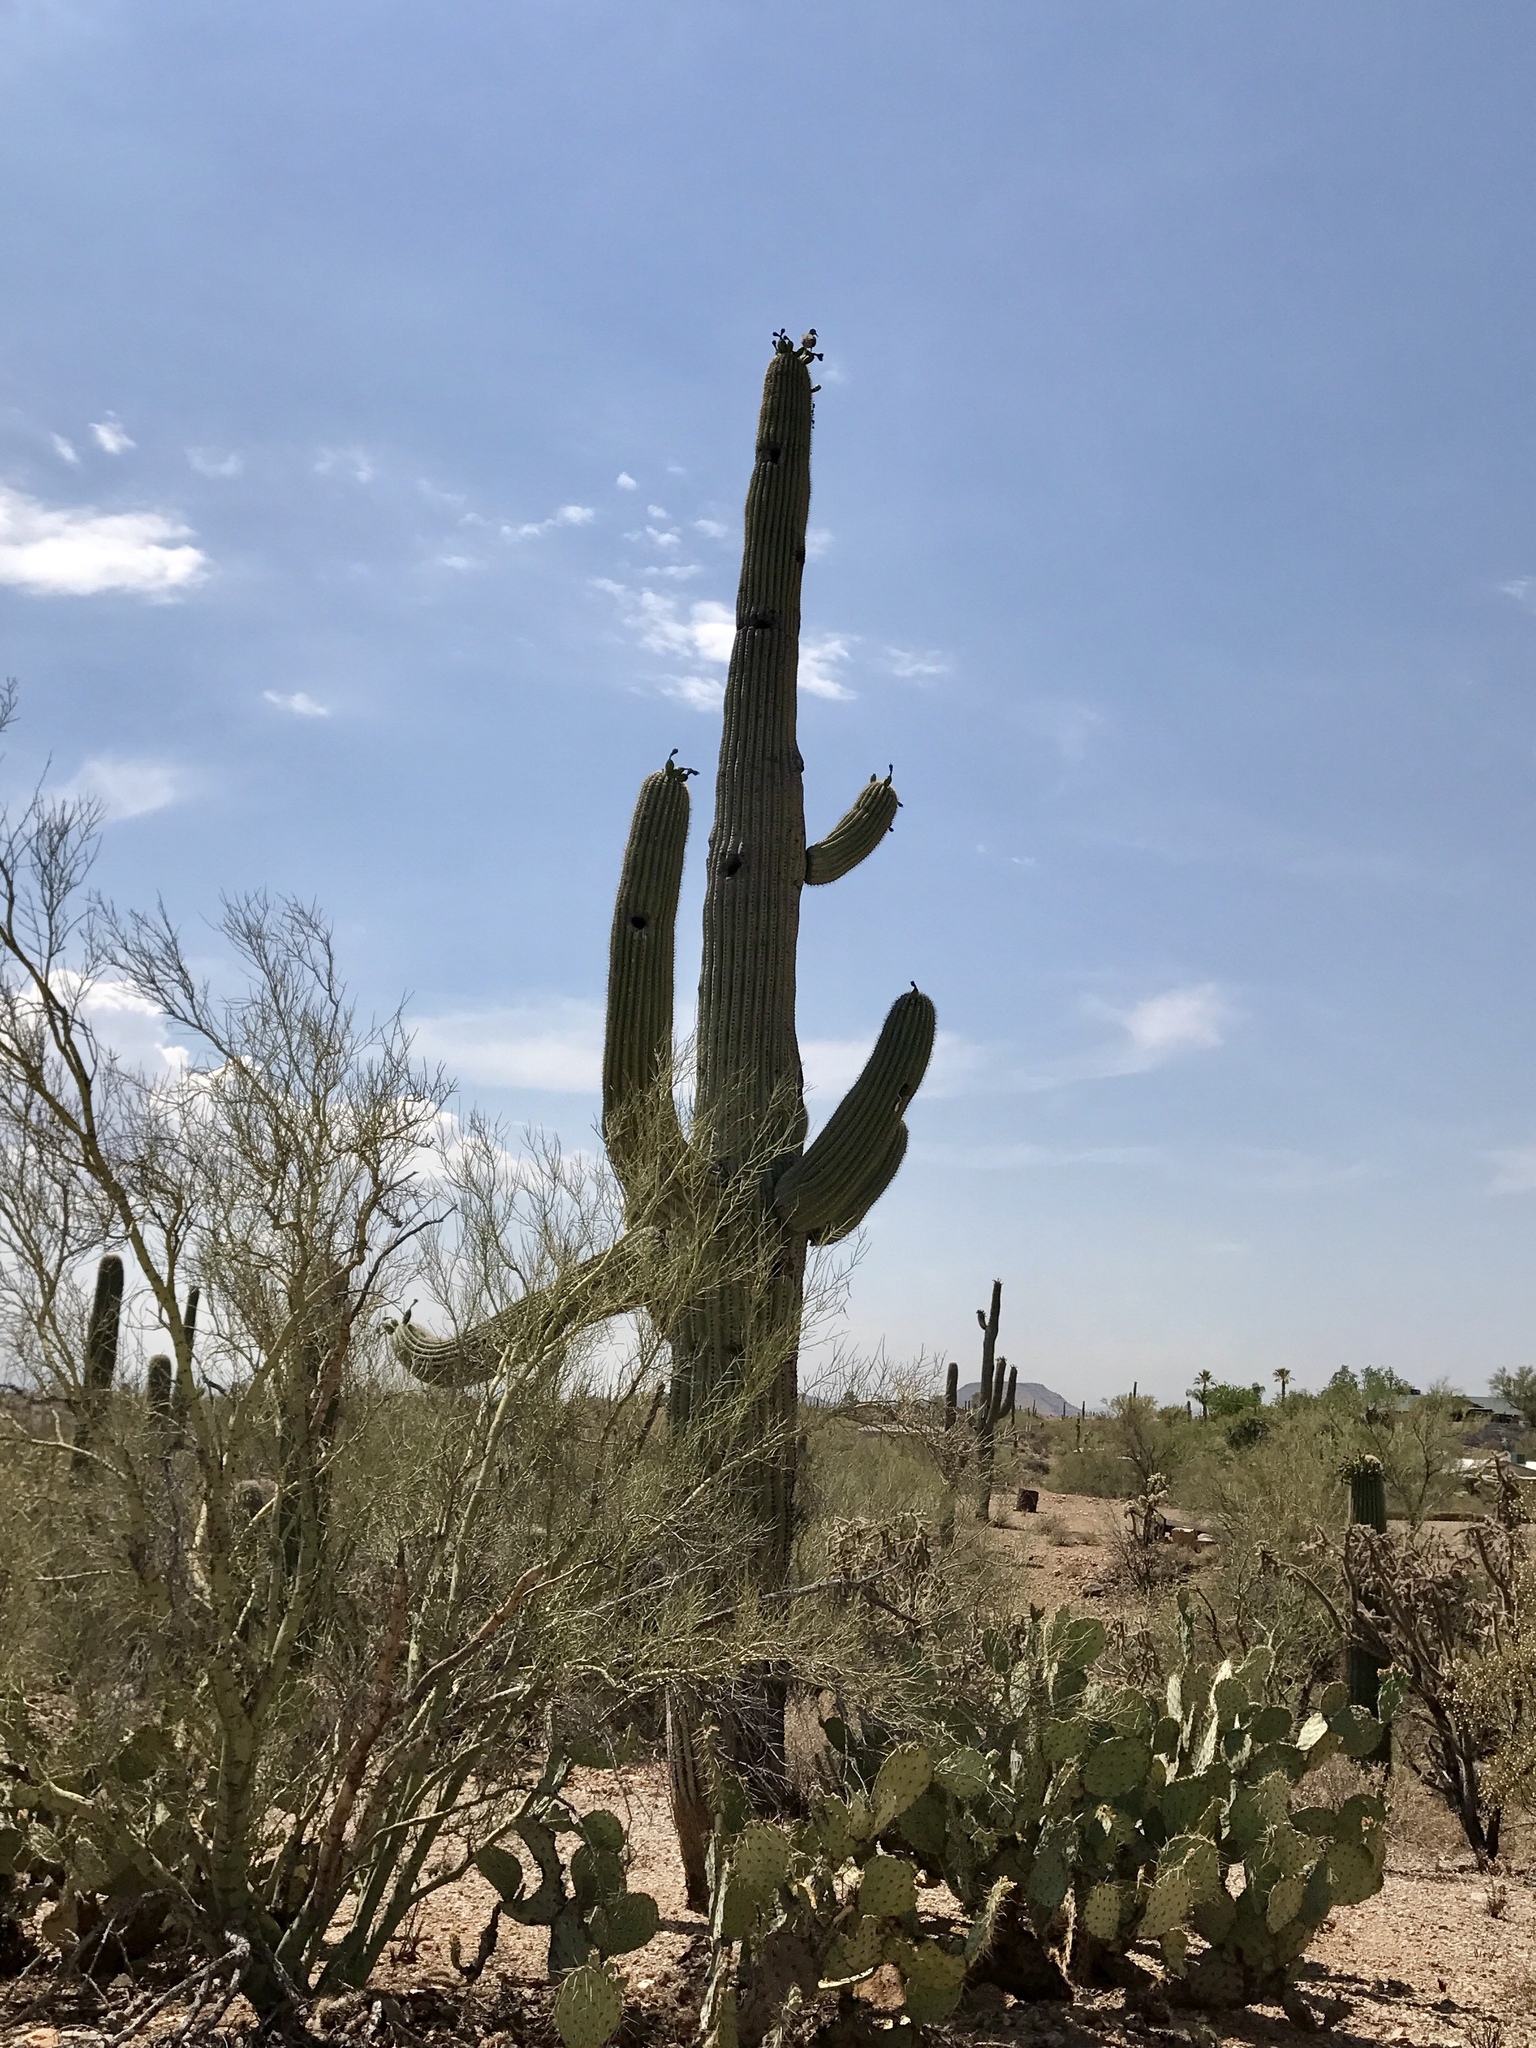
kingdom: Plantae
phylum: Tracheophyta
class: Magnoliopsida
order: Caryophyllales
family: Cactaceae
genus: Carnegiea
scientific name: Carnegiea gigantea
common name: Saguaro
